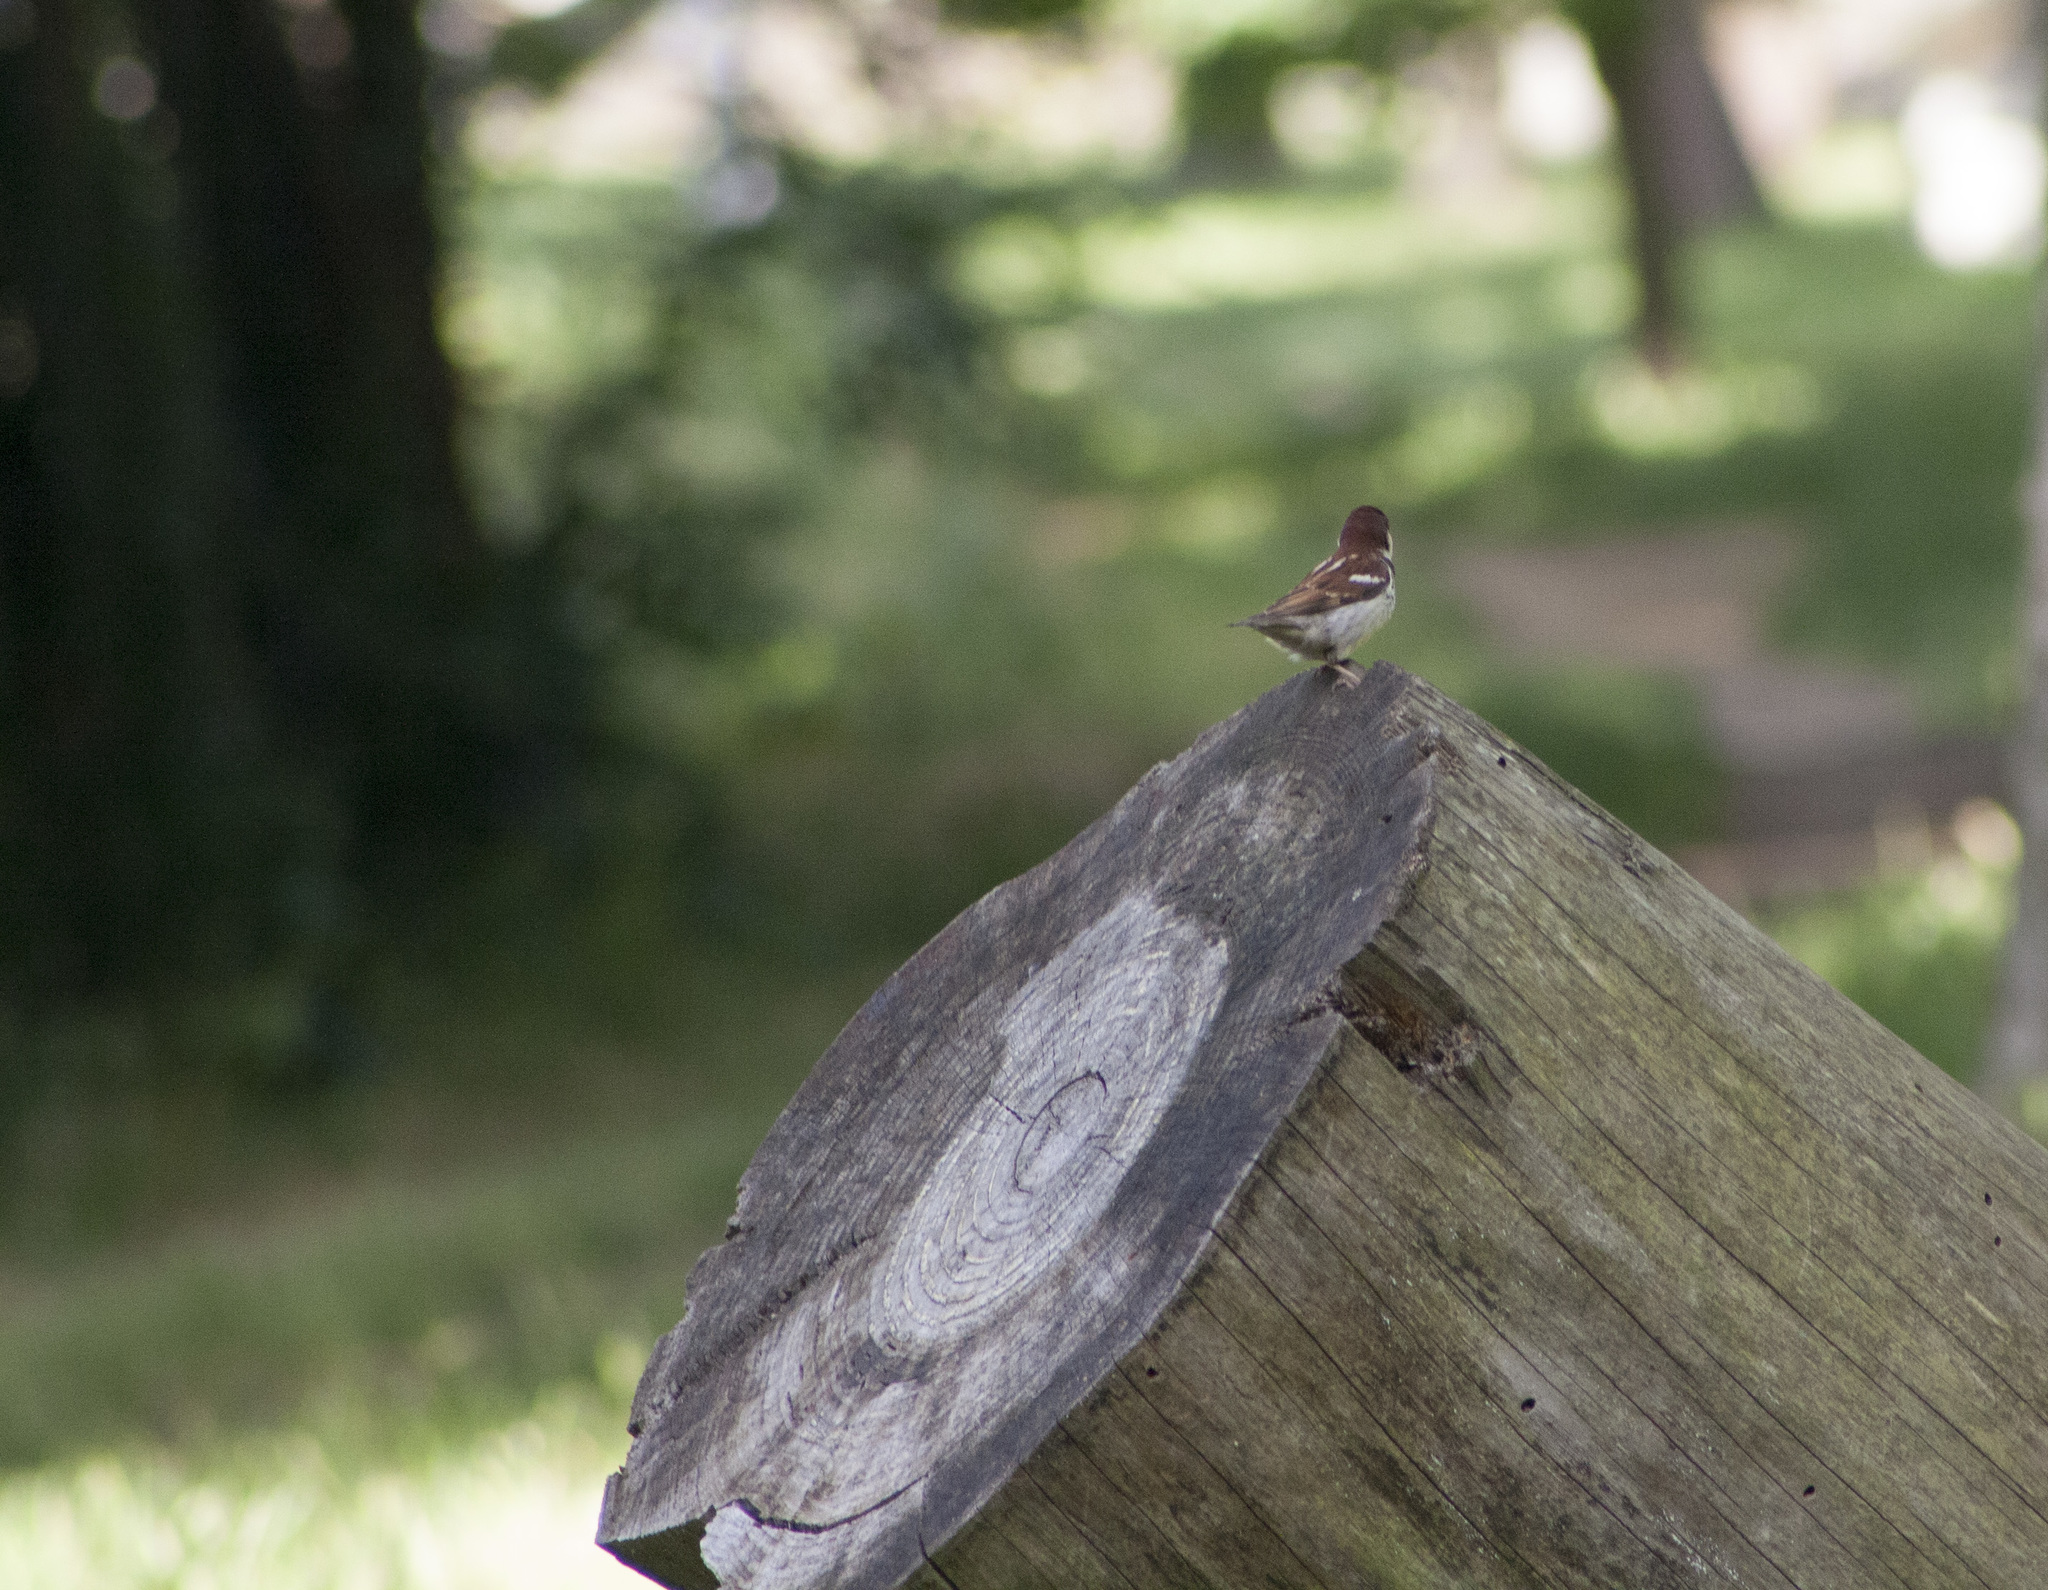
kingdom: Animalia
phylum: Chordata
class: Aves
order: Passeriformes
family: Passeridae
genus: Passer
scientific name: Passer italiae
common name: Italian sparrow
